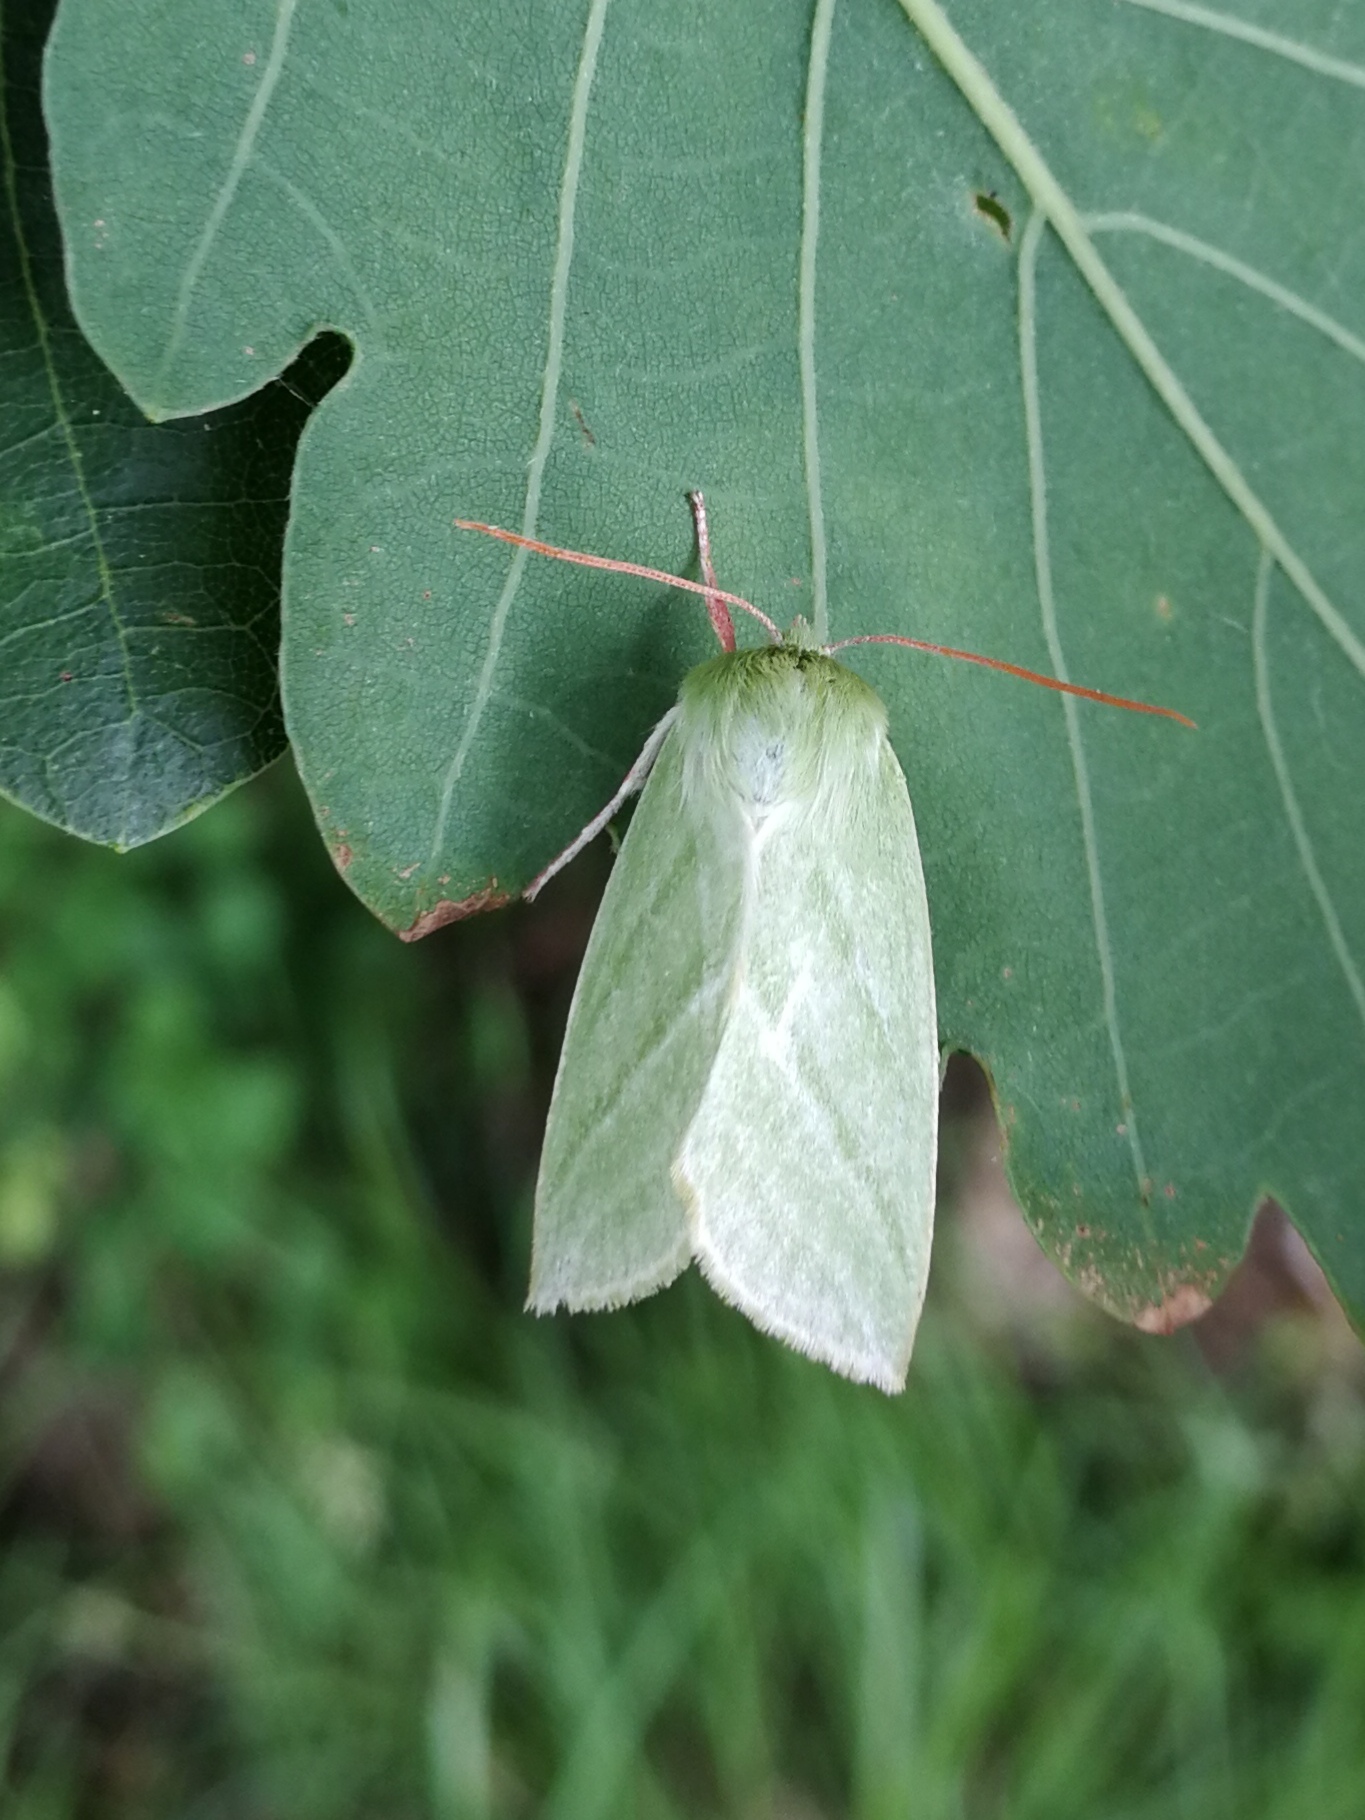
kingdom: Animalia
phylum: Arthropoda
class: Insecta
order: Lepidoptera
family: Nolidae
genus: Pseudoips
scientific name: Pseudoips prasinana
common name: Green silver-lines
